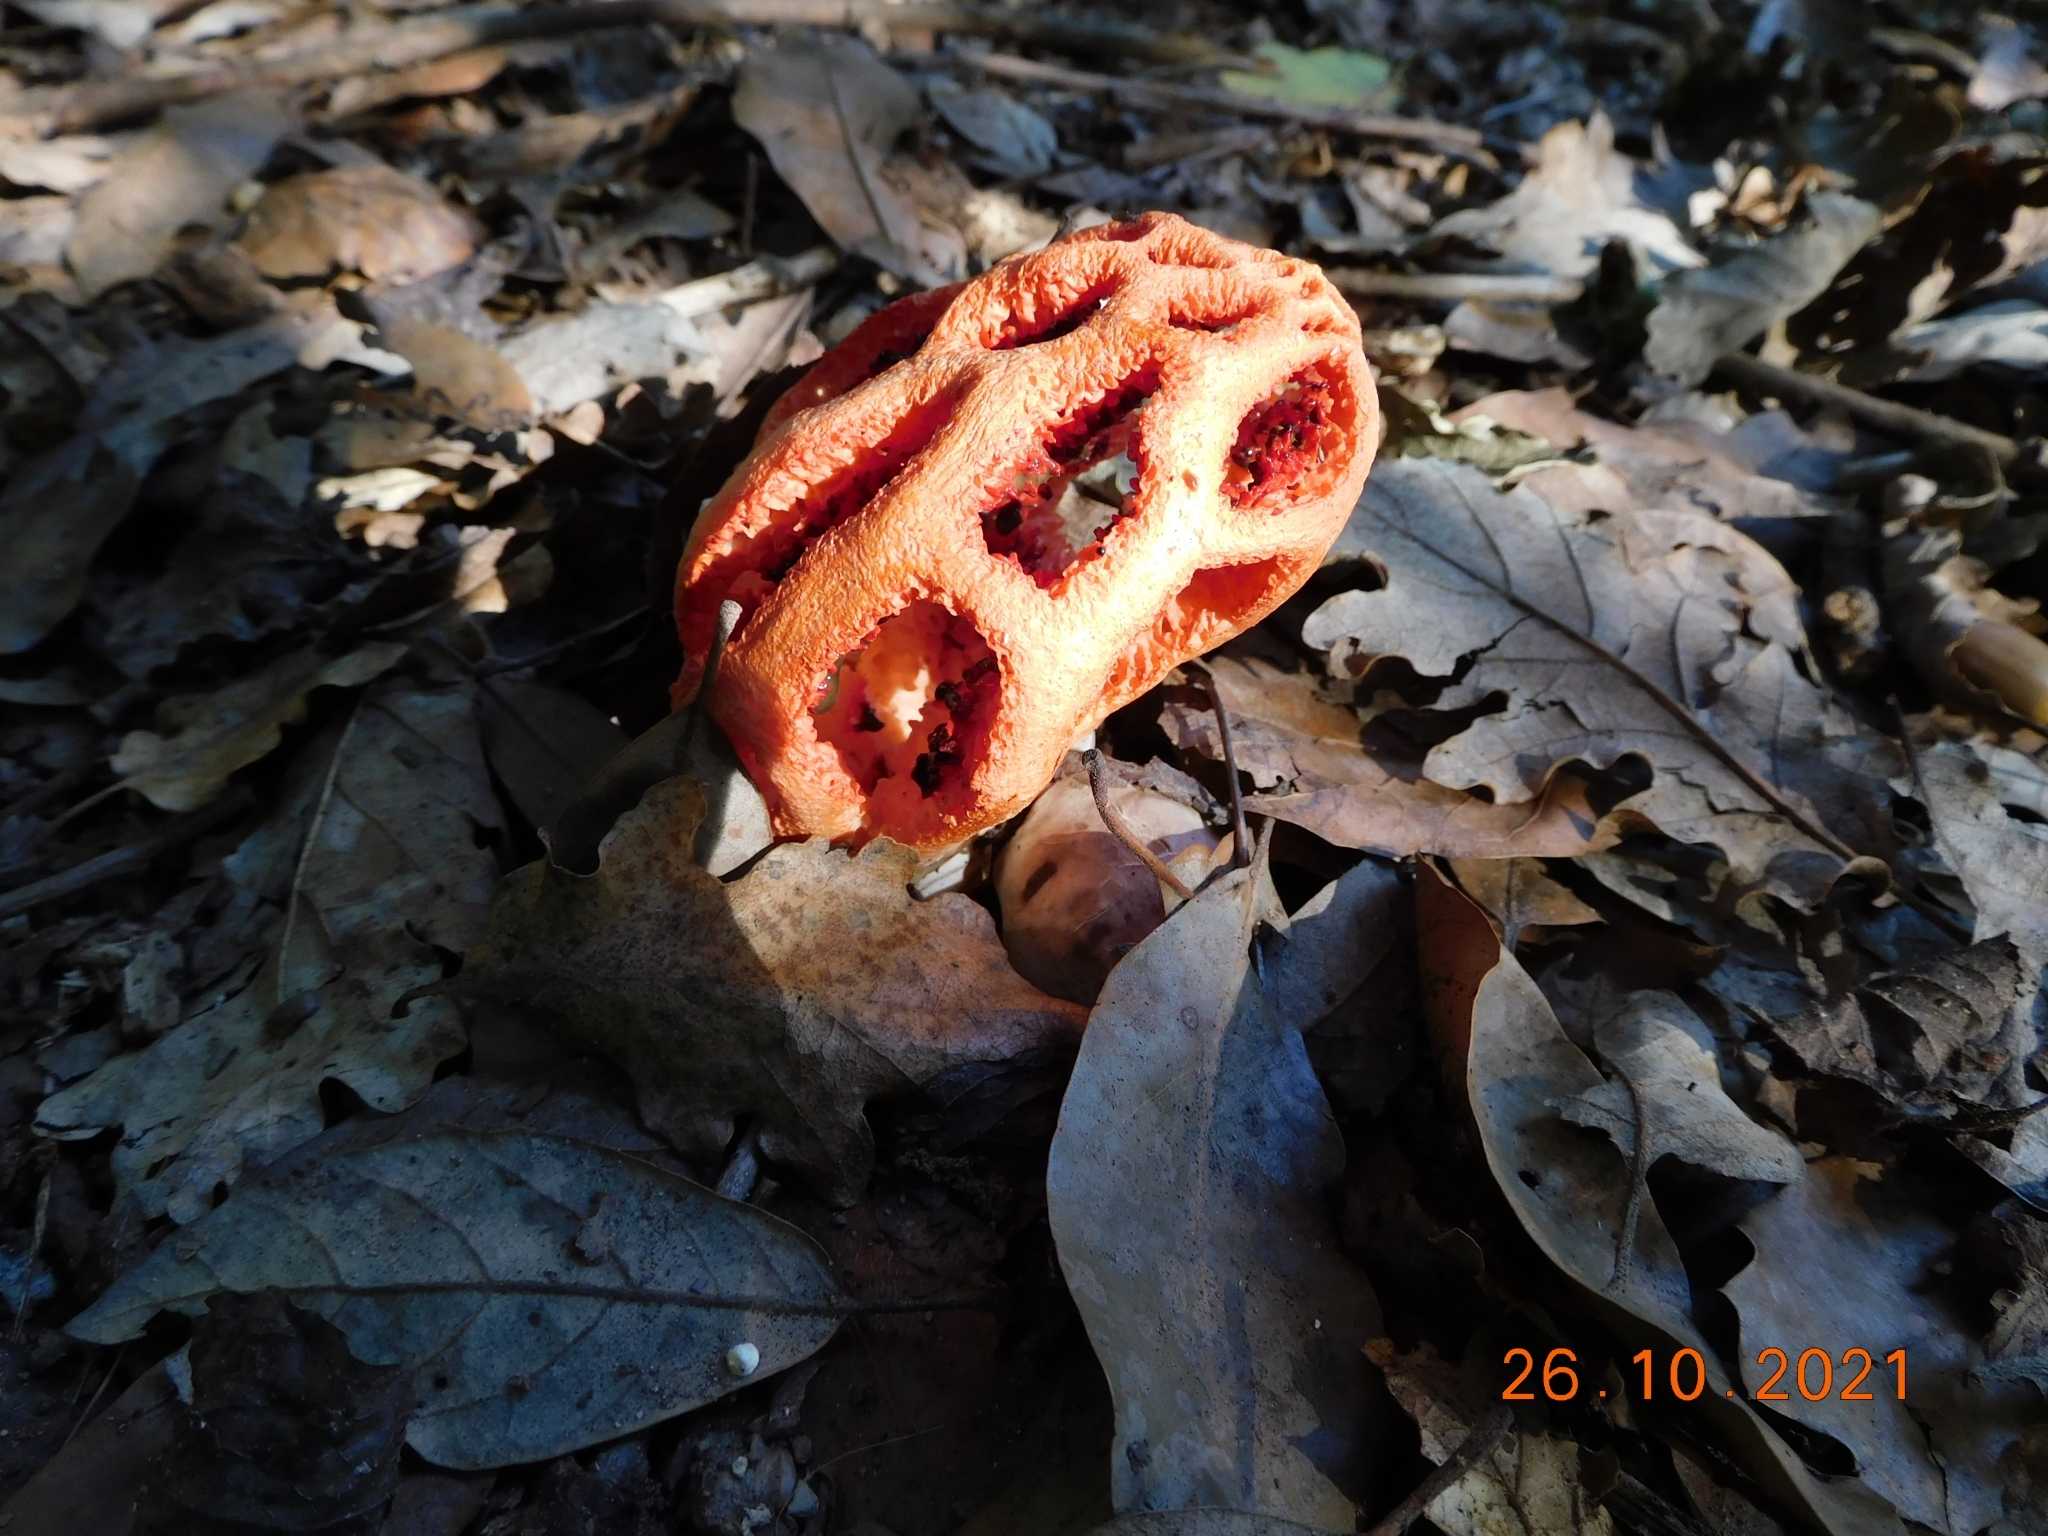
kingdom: Fungi
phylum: Basidiomycota
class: Agaricomycetes
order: Phallales
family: Phallaceae
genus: Clathrus
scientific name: Clathrus ruber
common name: Red cage
